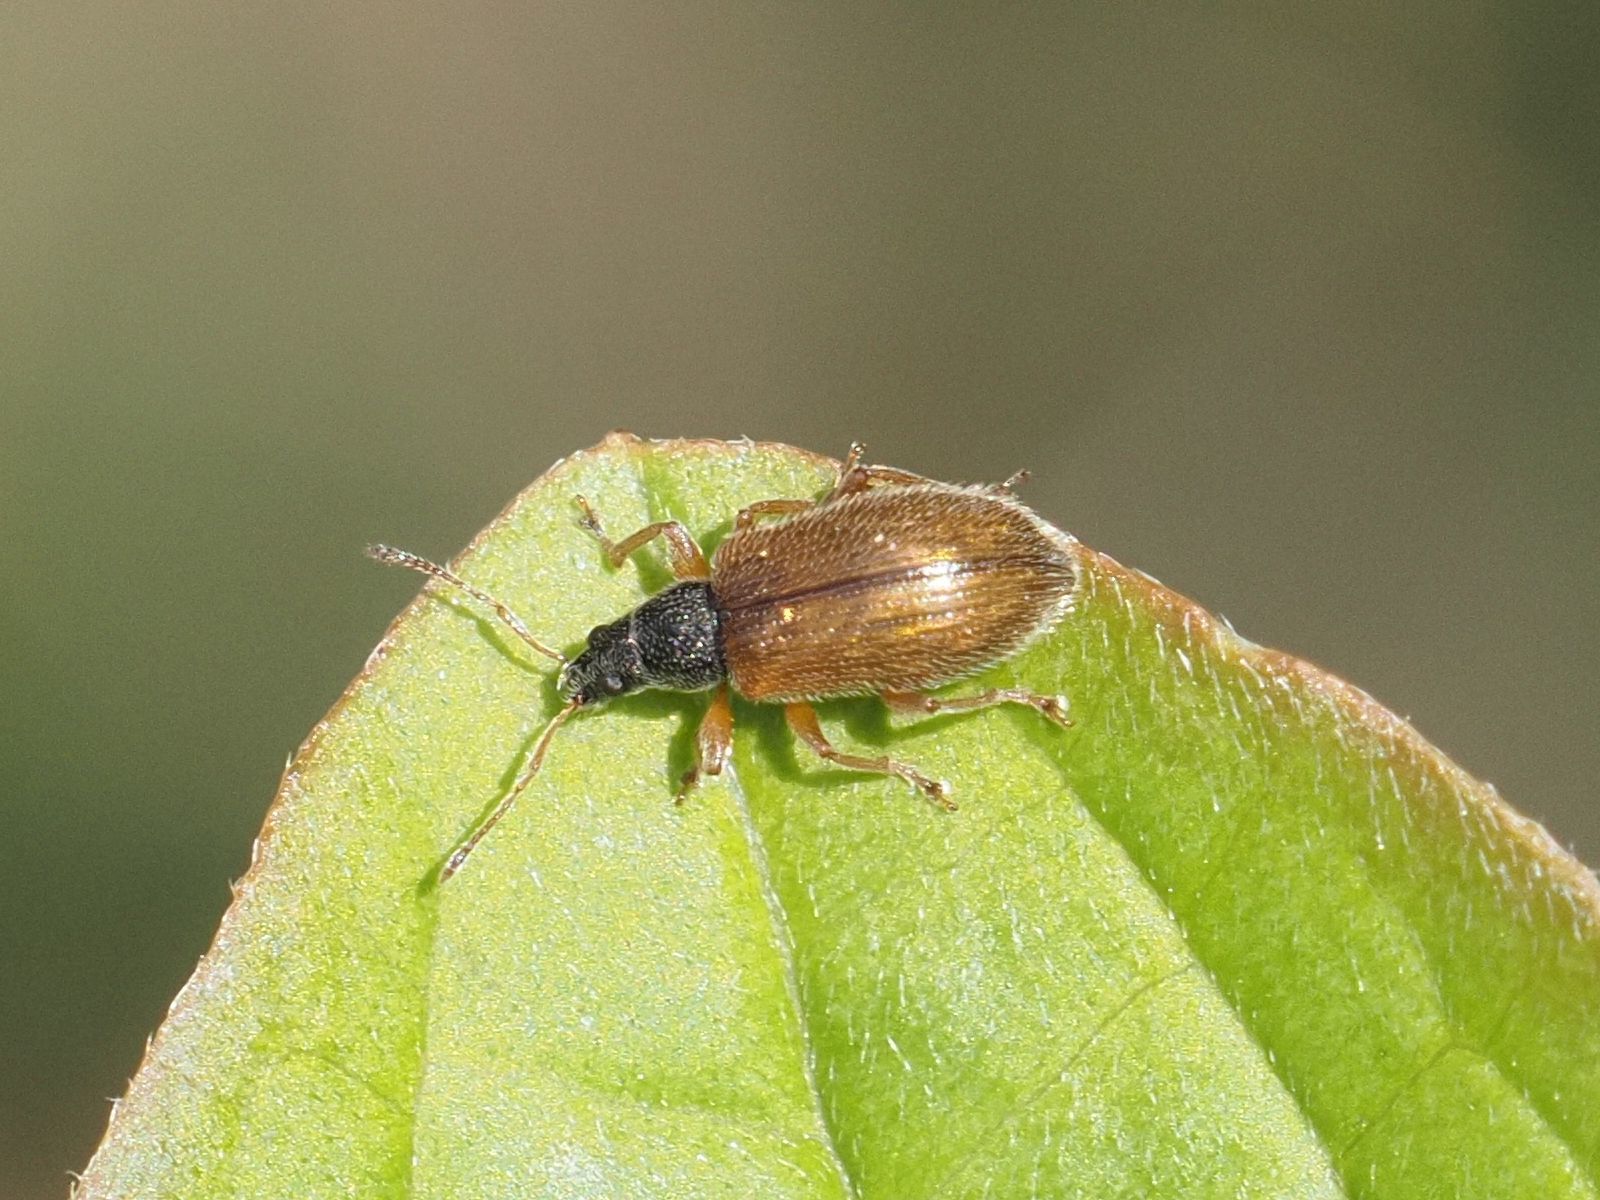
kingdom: Animalia
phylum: Arthropoda
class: Insecta
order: Coleoptera
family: Curculionidae
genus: Phyllobius
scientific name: Phyllobius oblongus
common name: Brown leaf weevil
